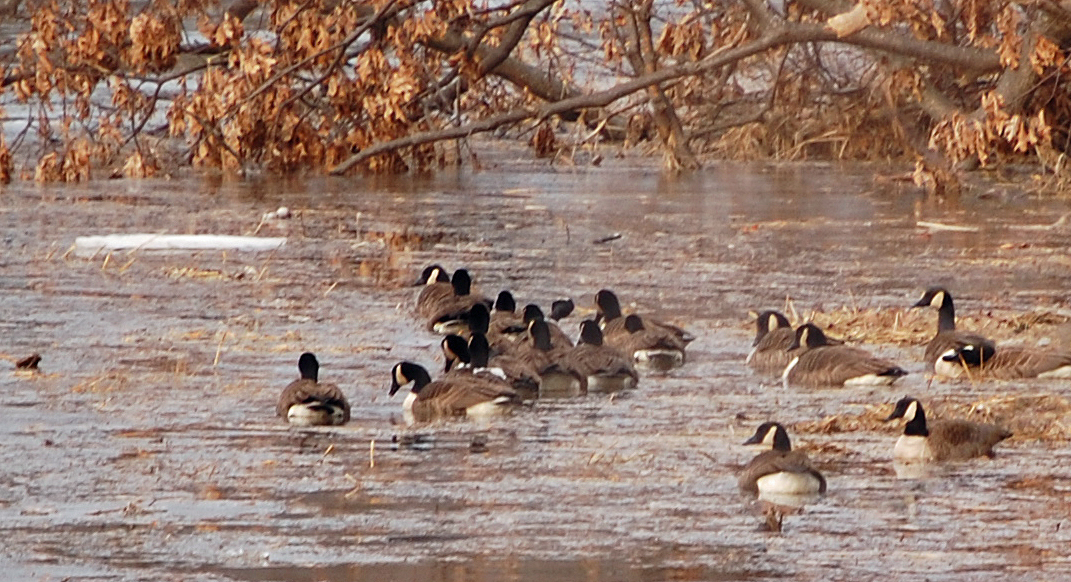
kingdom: Animalia
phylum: Chordata
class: Aves
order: Anseriformes
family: Anatidae
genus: Branta
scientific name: Branta canadensis
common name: Canada goose
